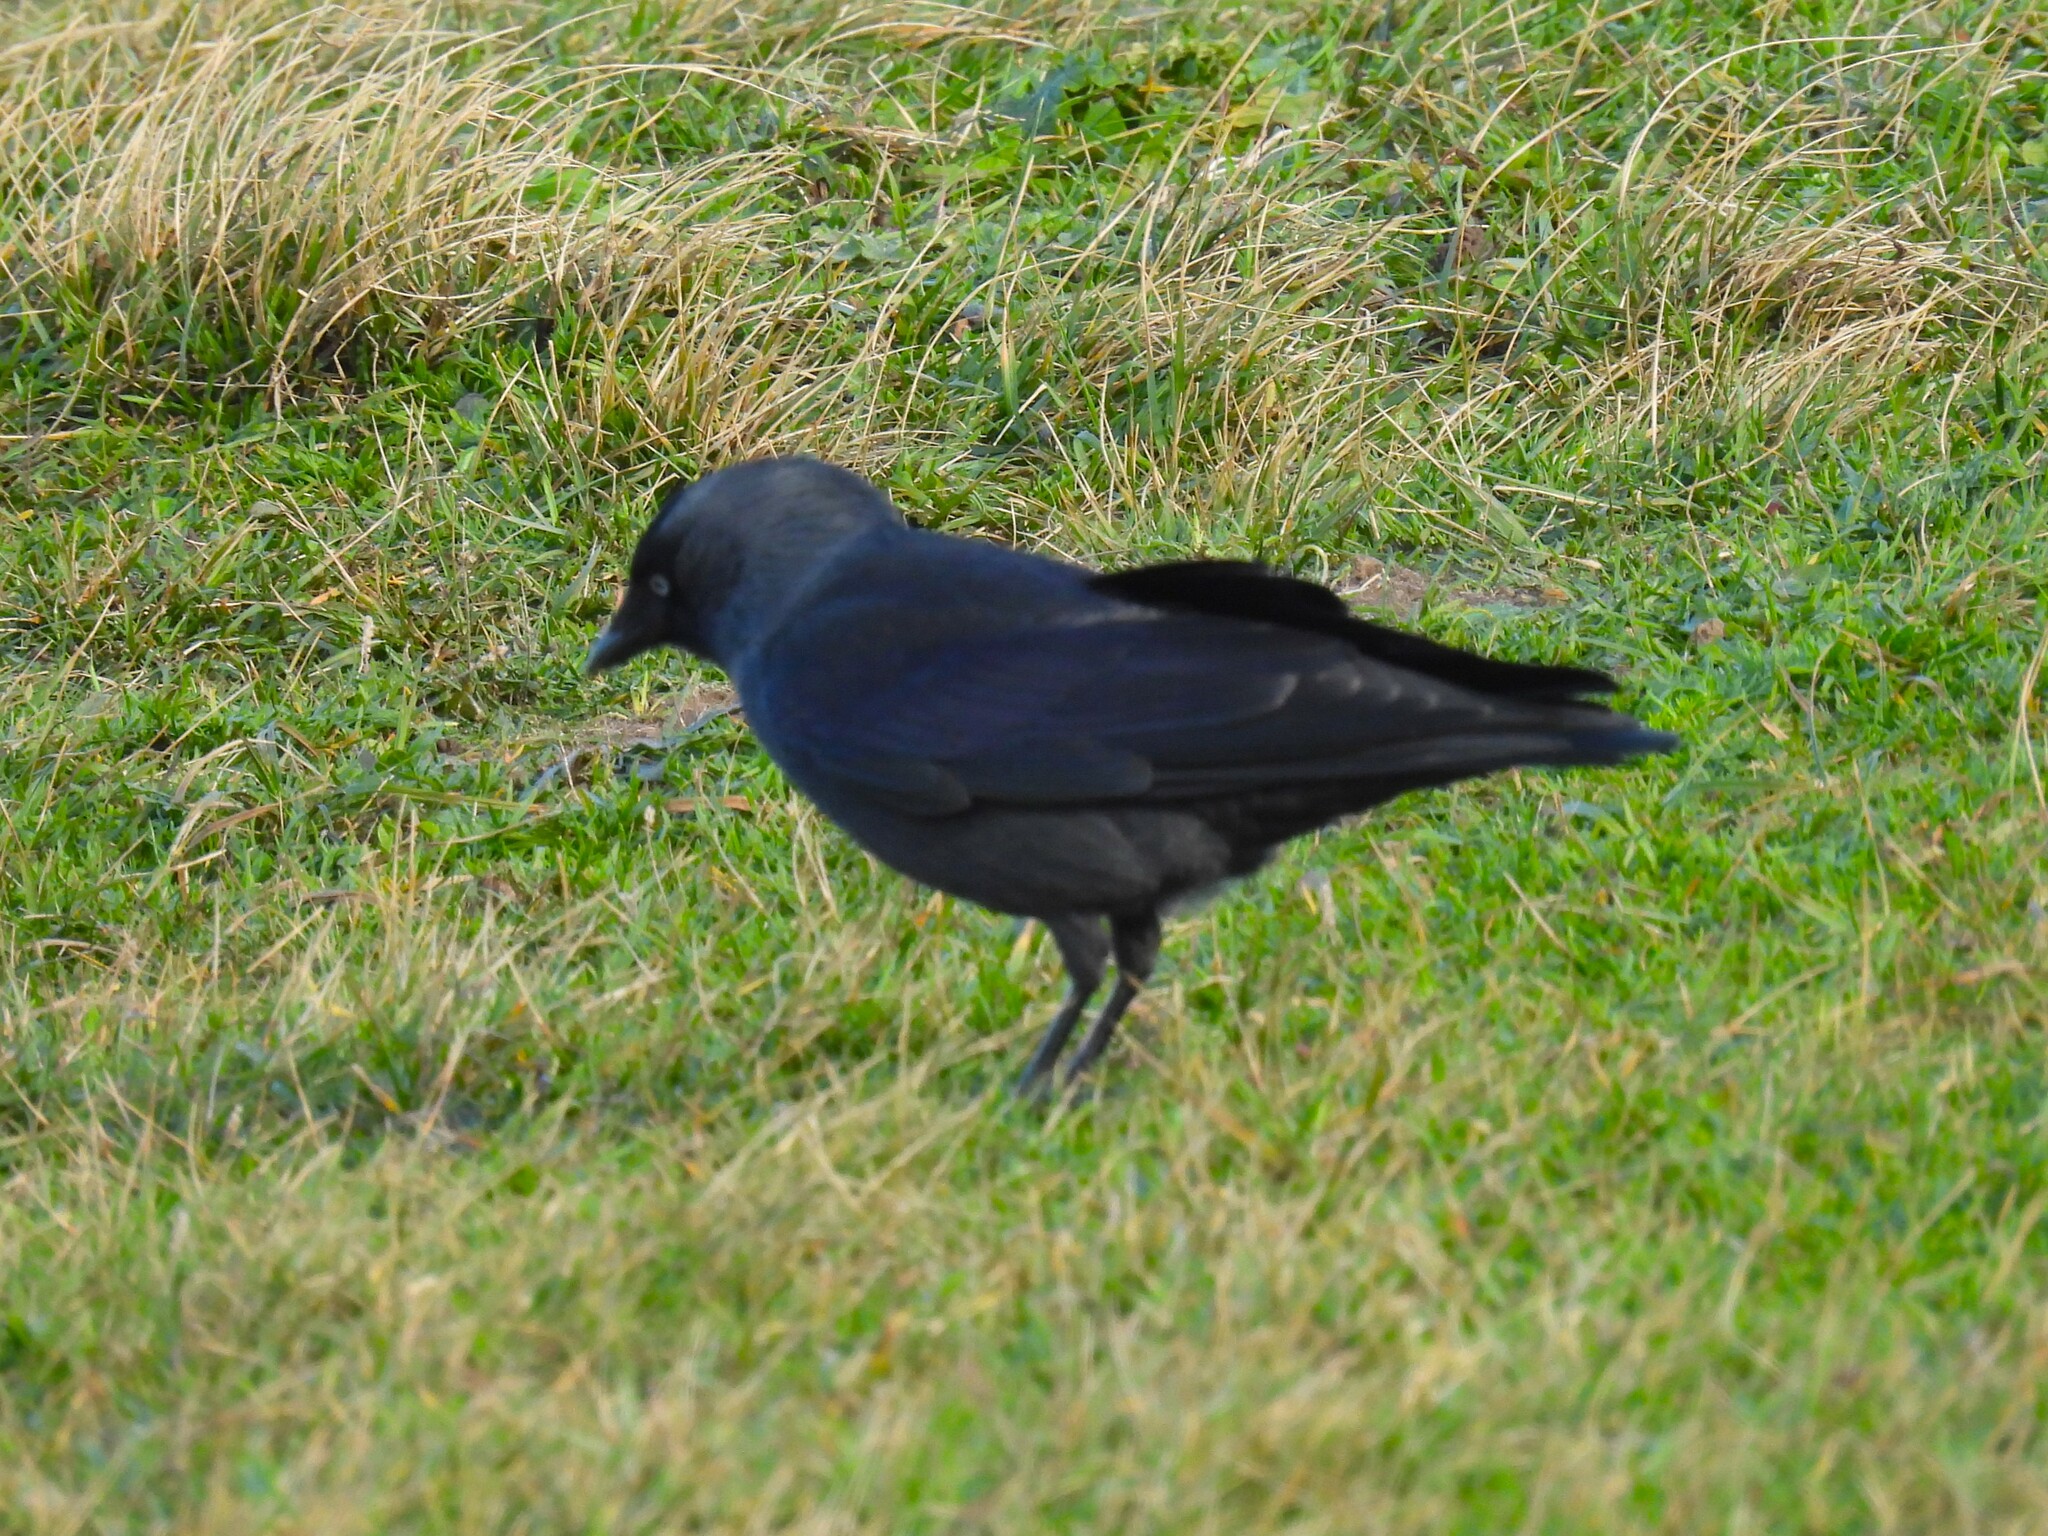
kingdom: Animalia
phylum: Chordata
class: Aves
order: Passeriformes
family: Corvidae
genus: Coloeus
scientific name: Coloeus monedula
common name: Western jackdaw
